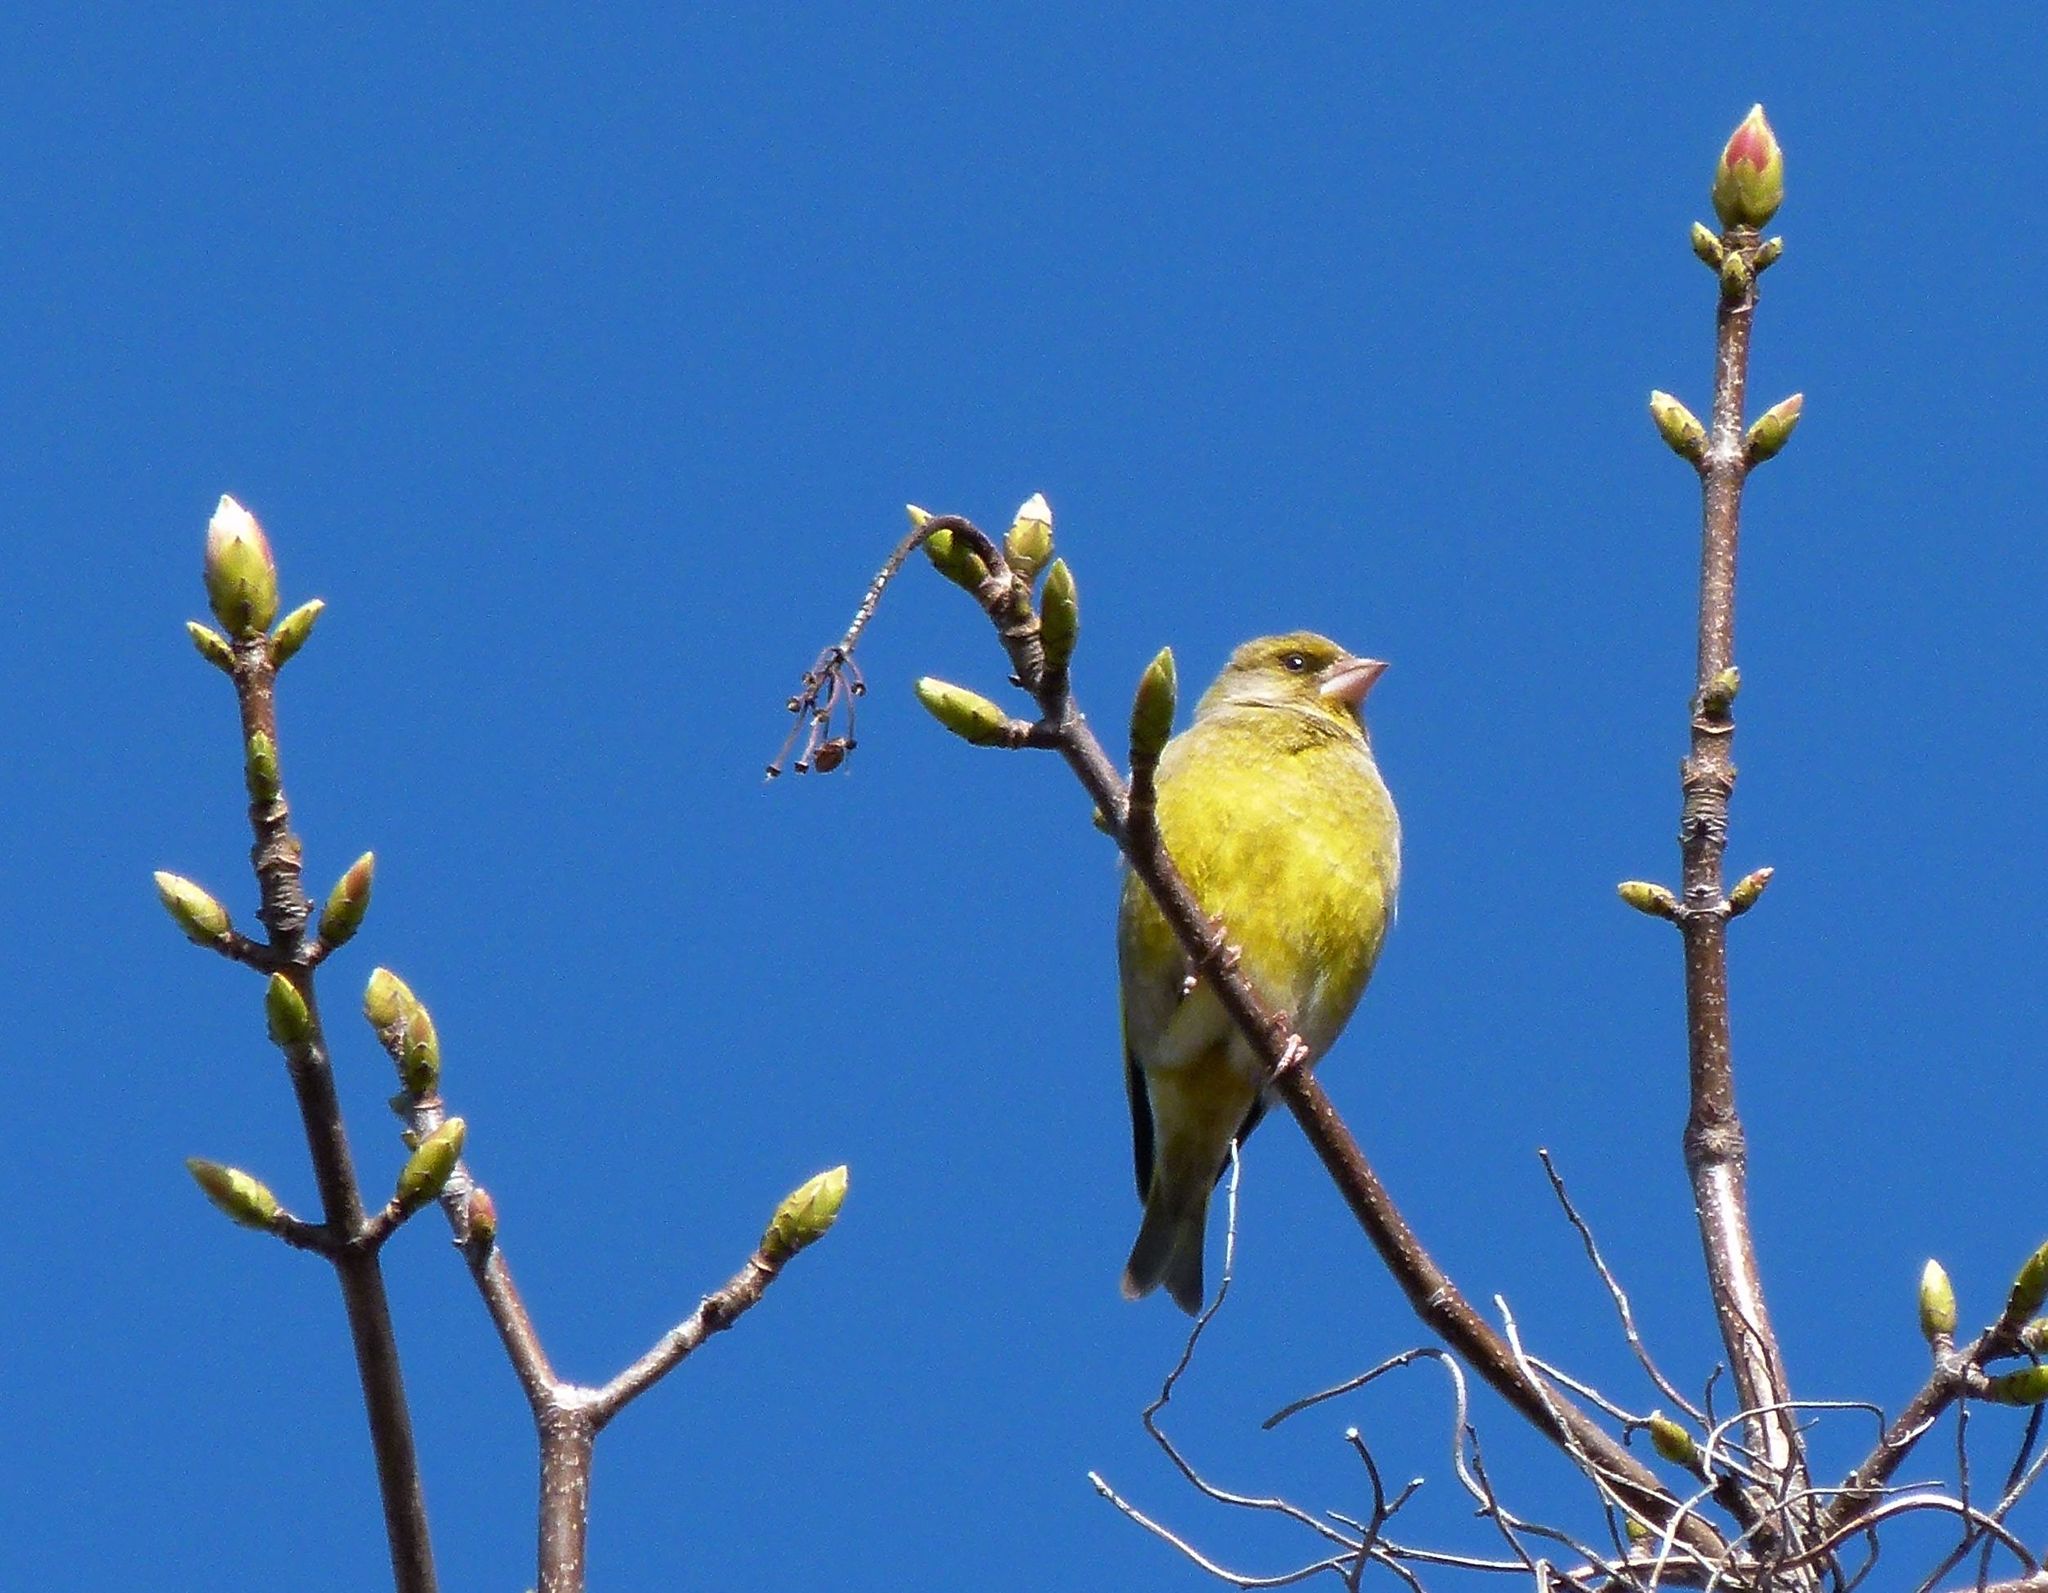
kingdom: Plantae
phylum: Tracheophyta
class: Liliopsida
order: Poales
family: Poaceae
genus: Chloris
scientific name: Chloris chloris
